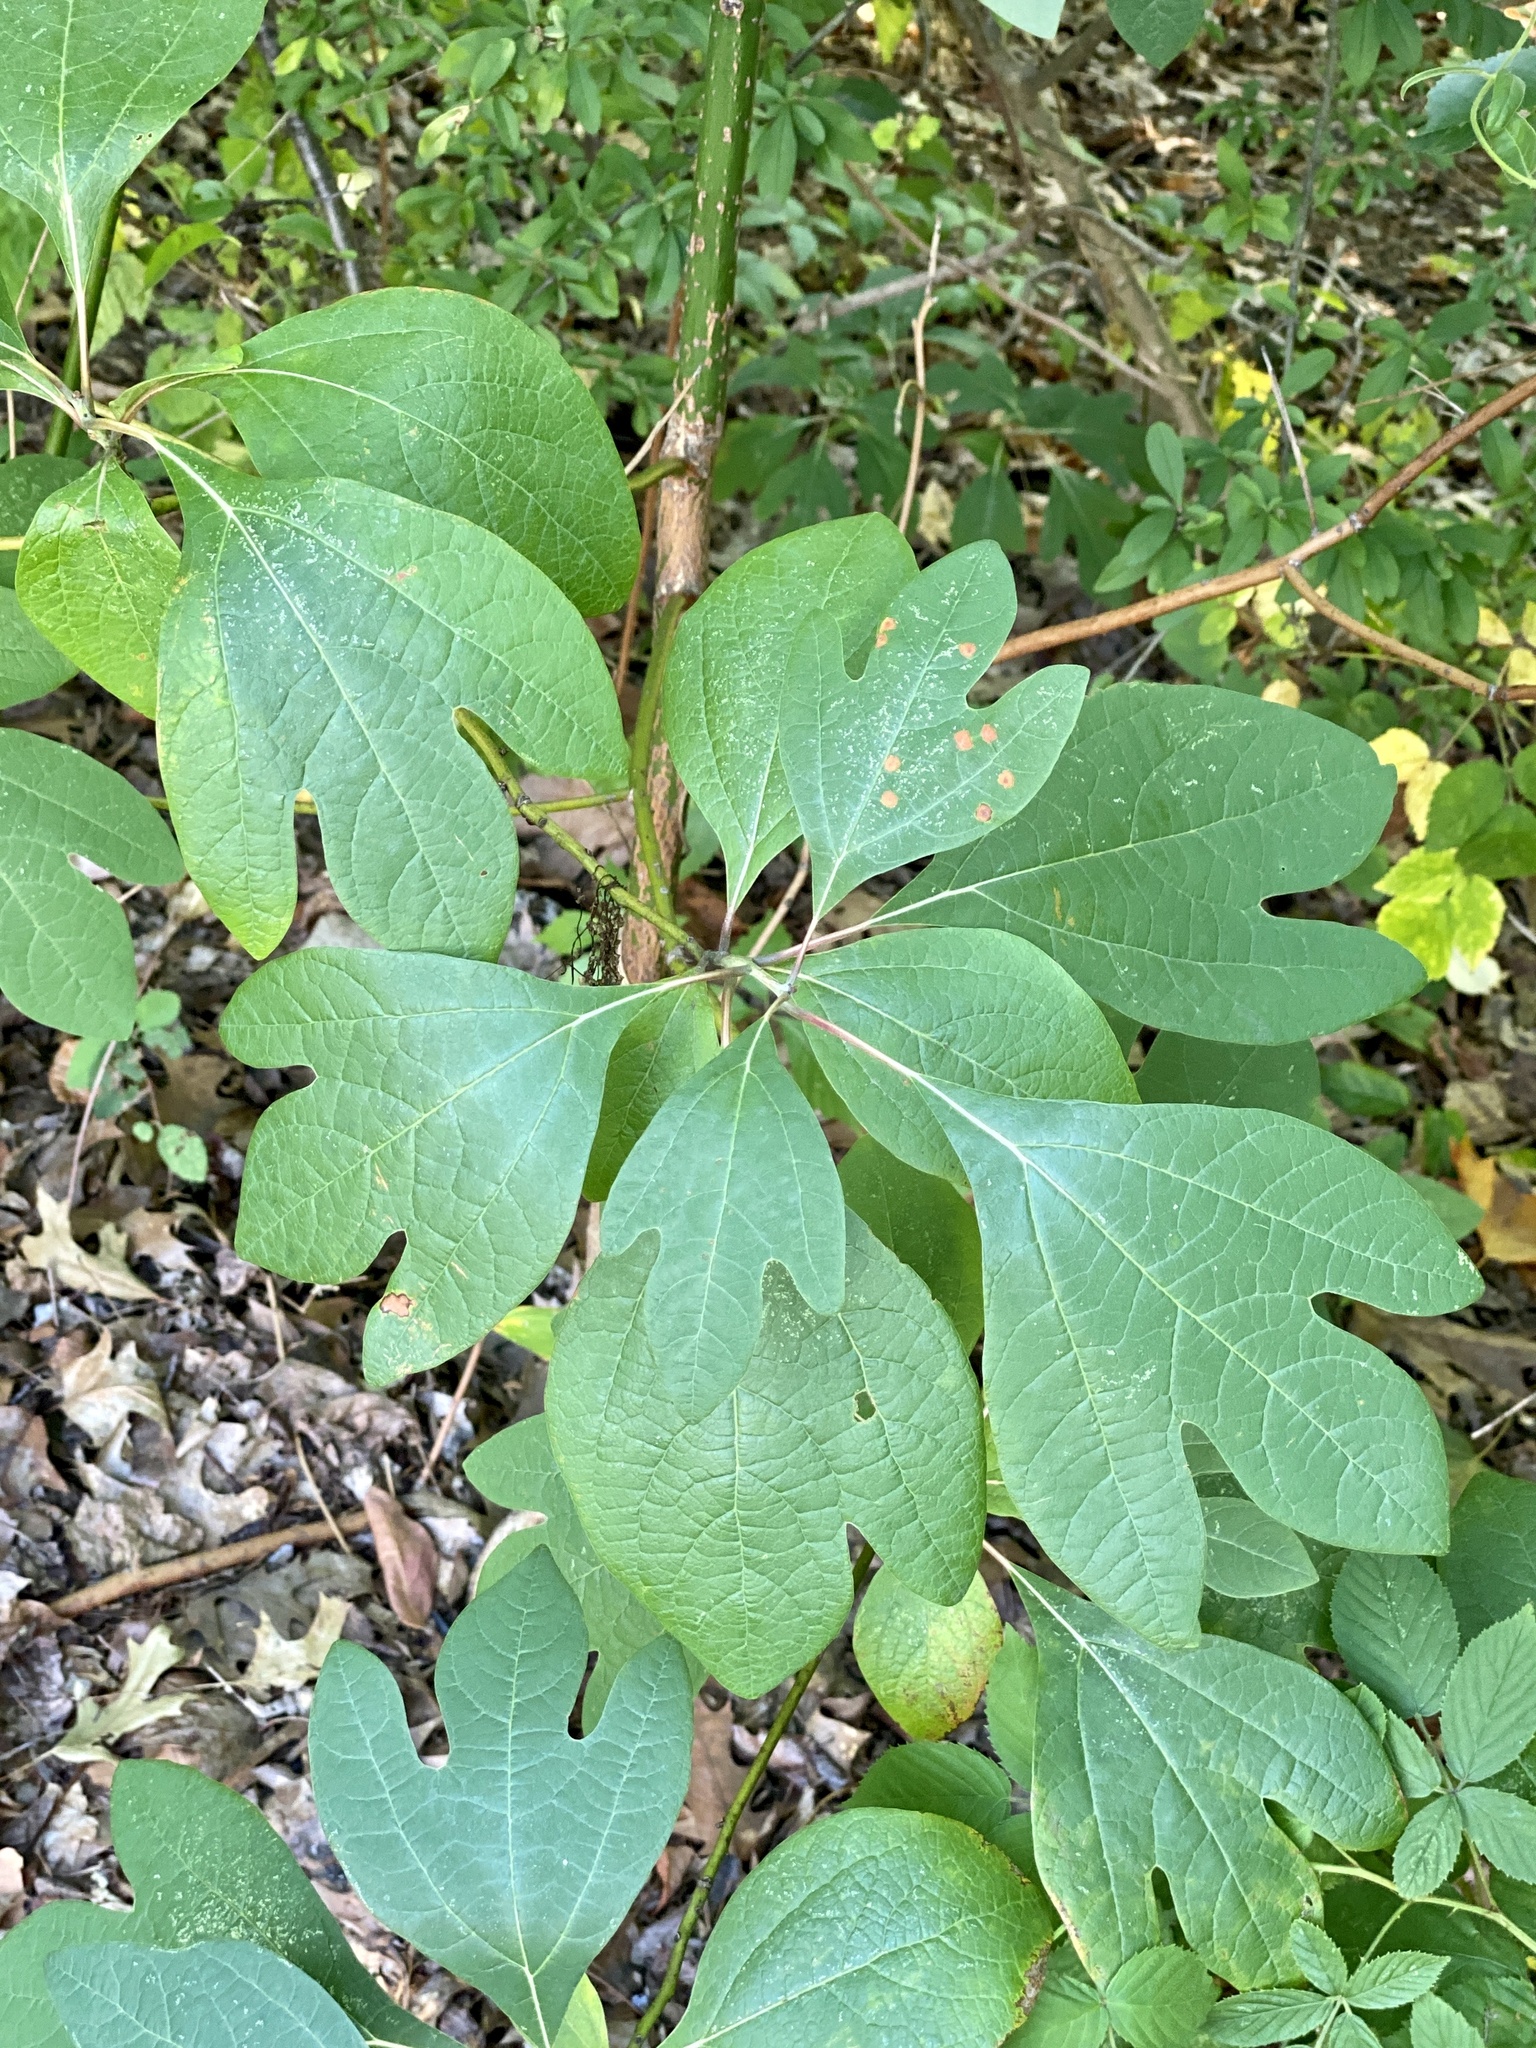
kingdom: Plantae
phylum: Tracheophyta
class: Magnoliopsida
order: Laurales
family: Lauraceae
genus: Sassafras
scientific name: Sassafras albidum
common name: Sassafras
